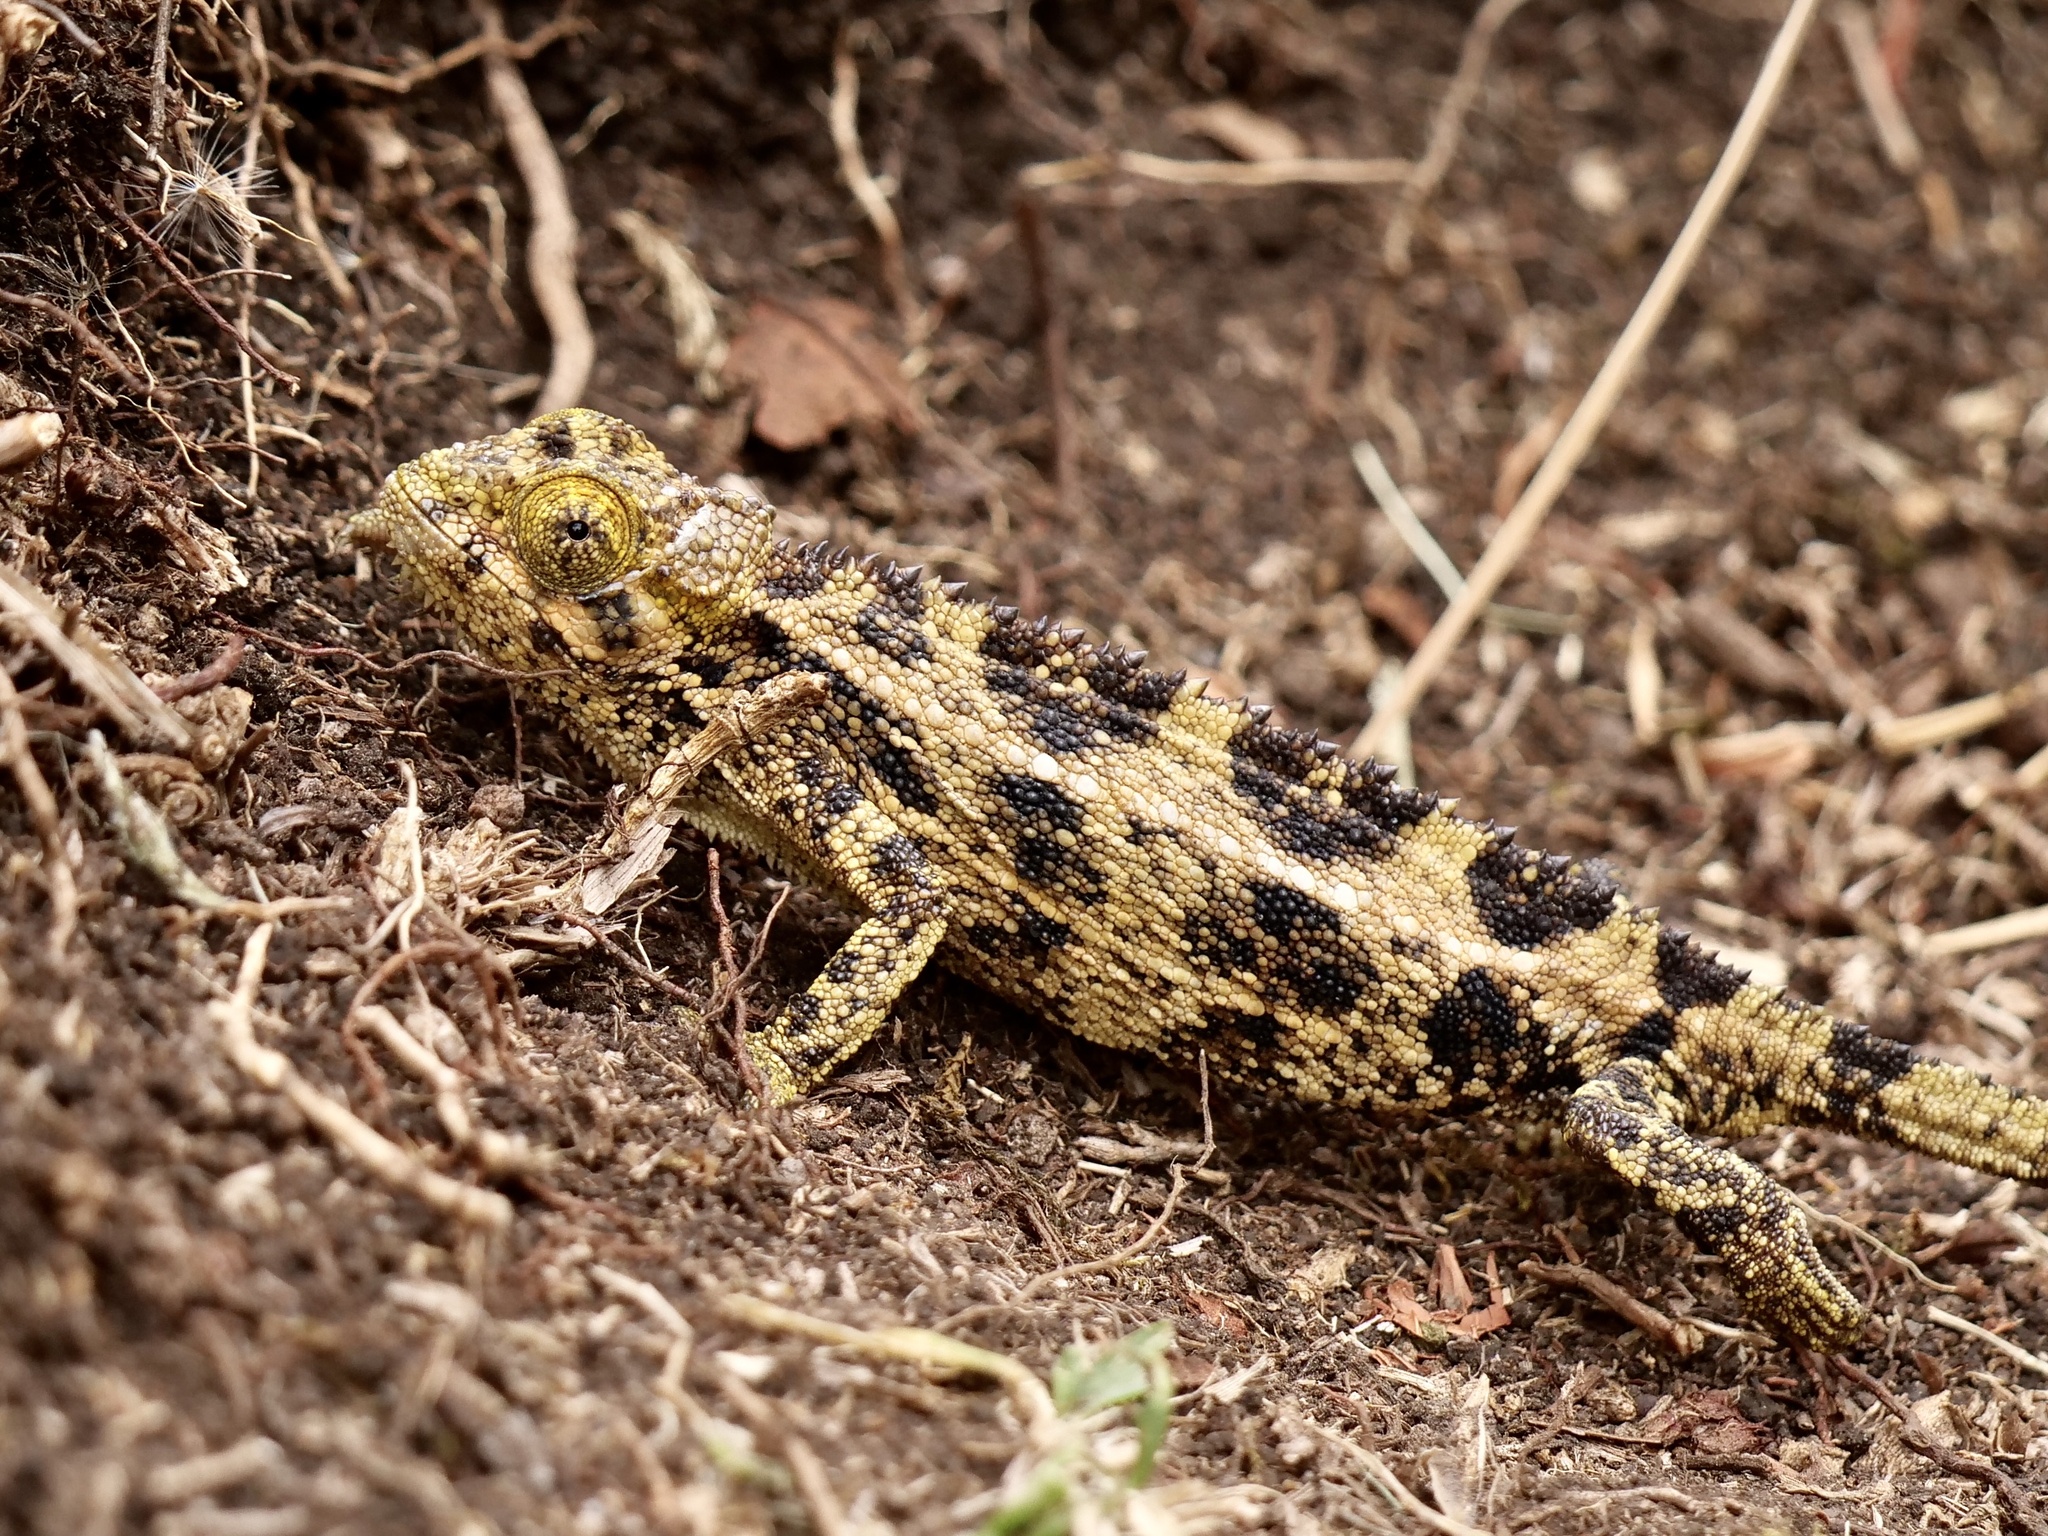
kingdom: Animalia
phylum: Chordata
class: Squamata
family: Chamaeleonidae
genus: Trioceros
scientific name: Trioceros rudis
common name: Coarse chameleon
